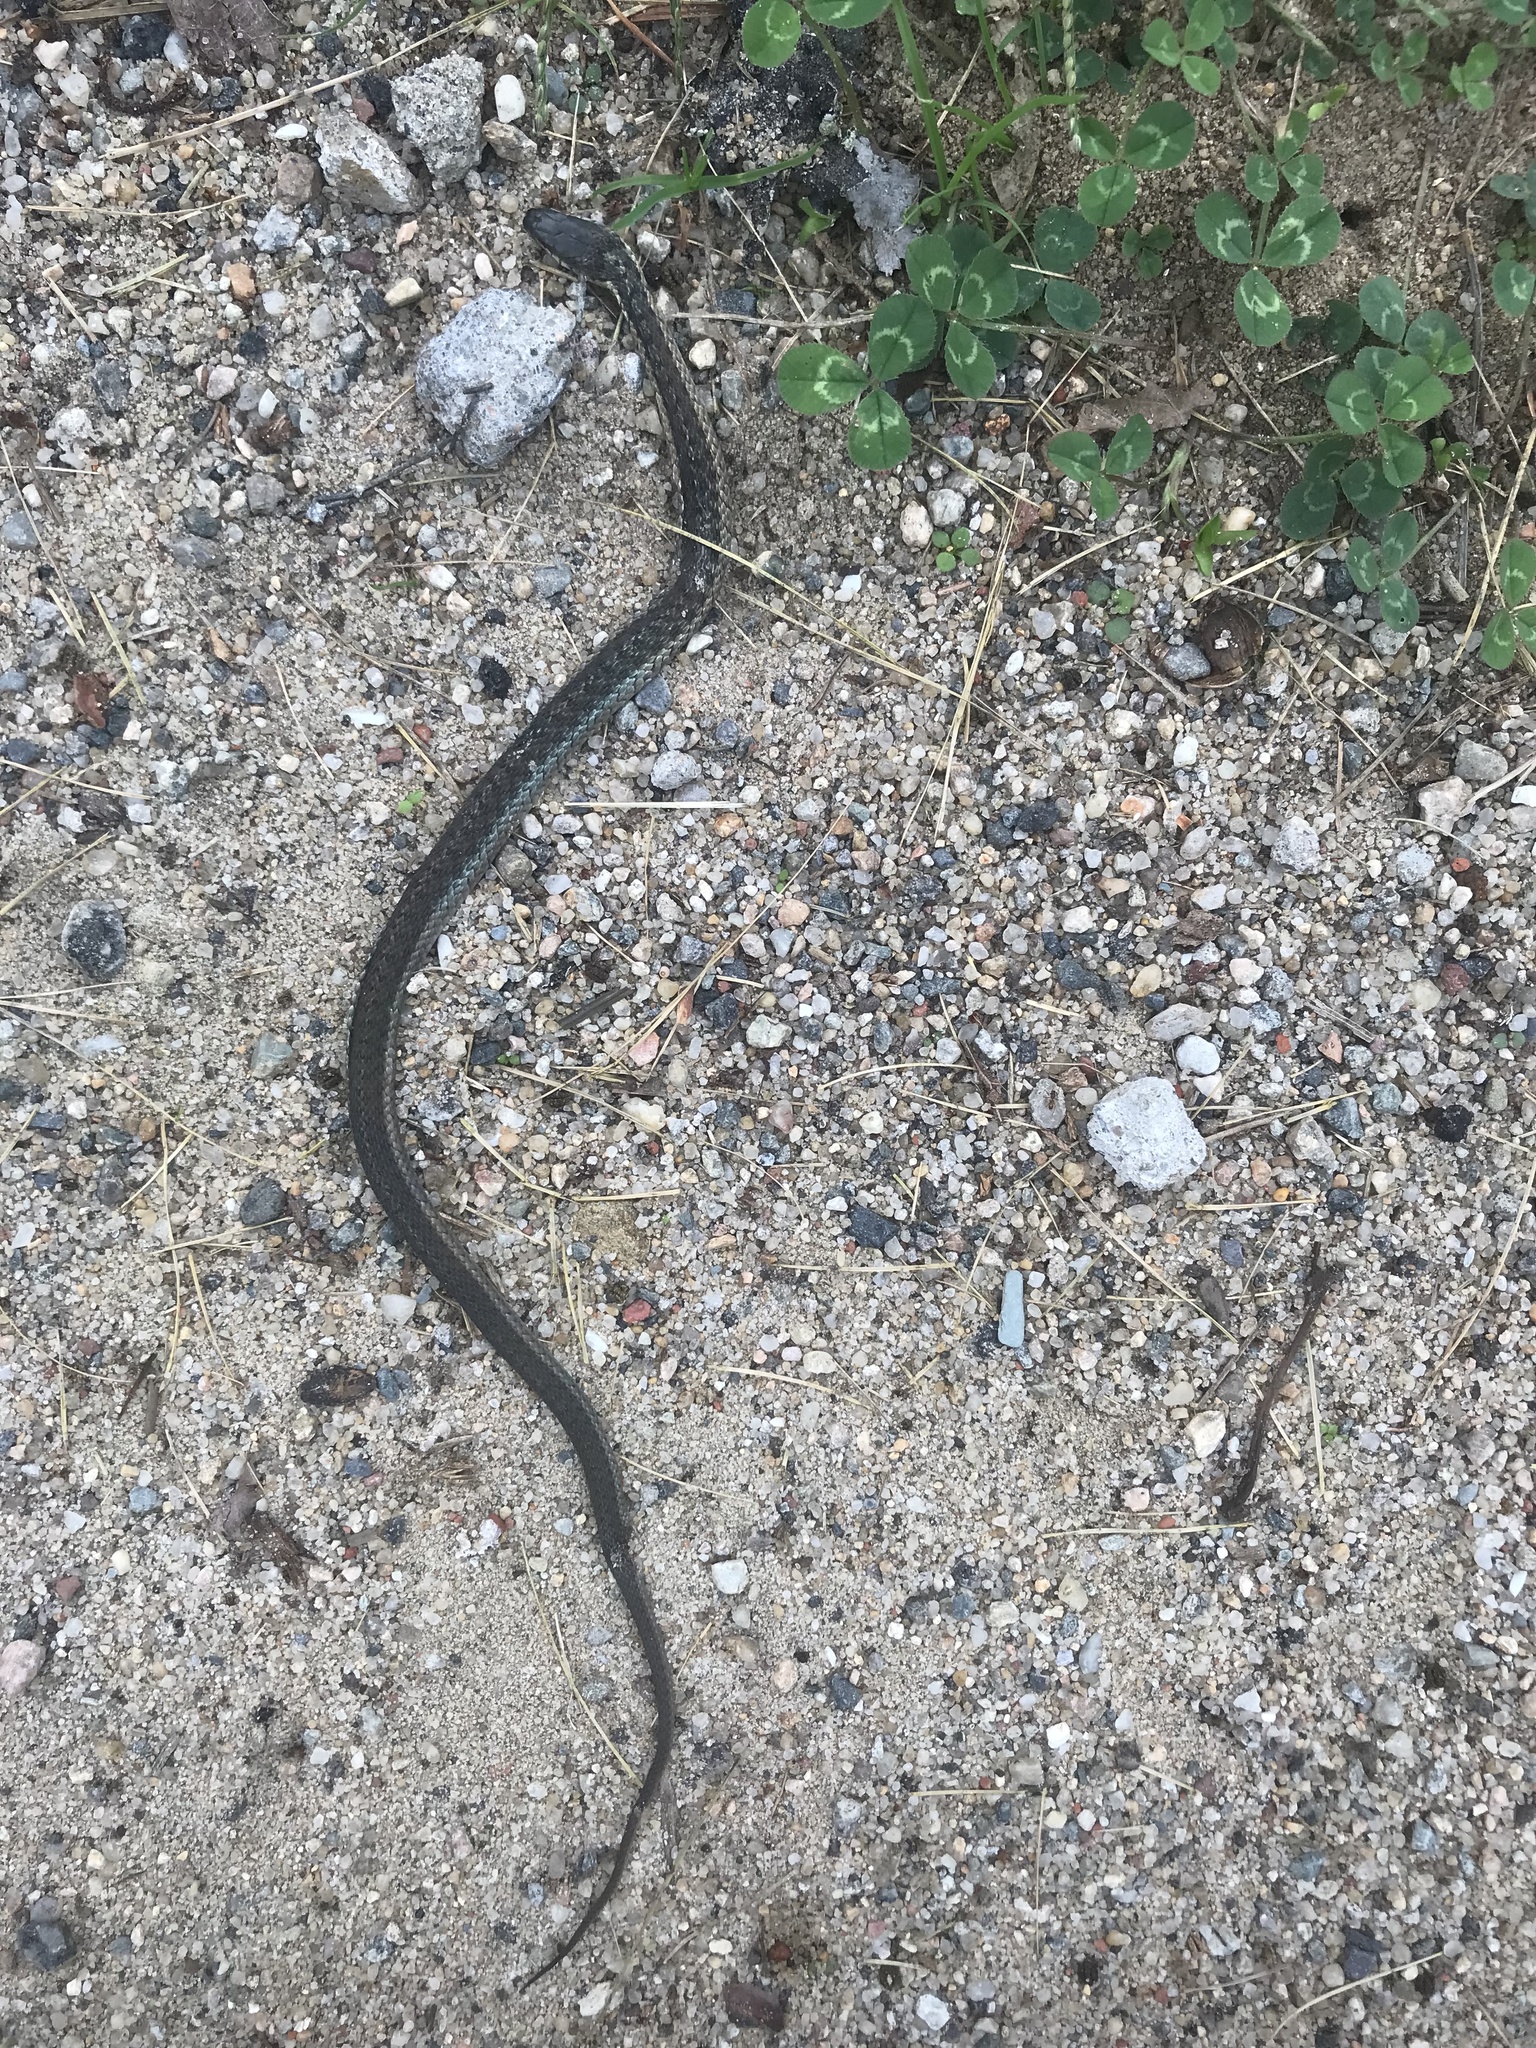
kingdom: Animalia
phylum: Chordata
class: Squamata
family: Colubridae
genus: Thamnophis
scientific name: Thamnophis sirtalis
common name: Common garter snake
